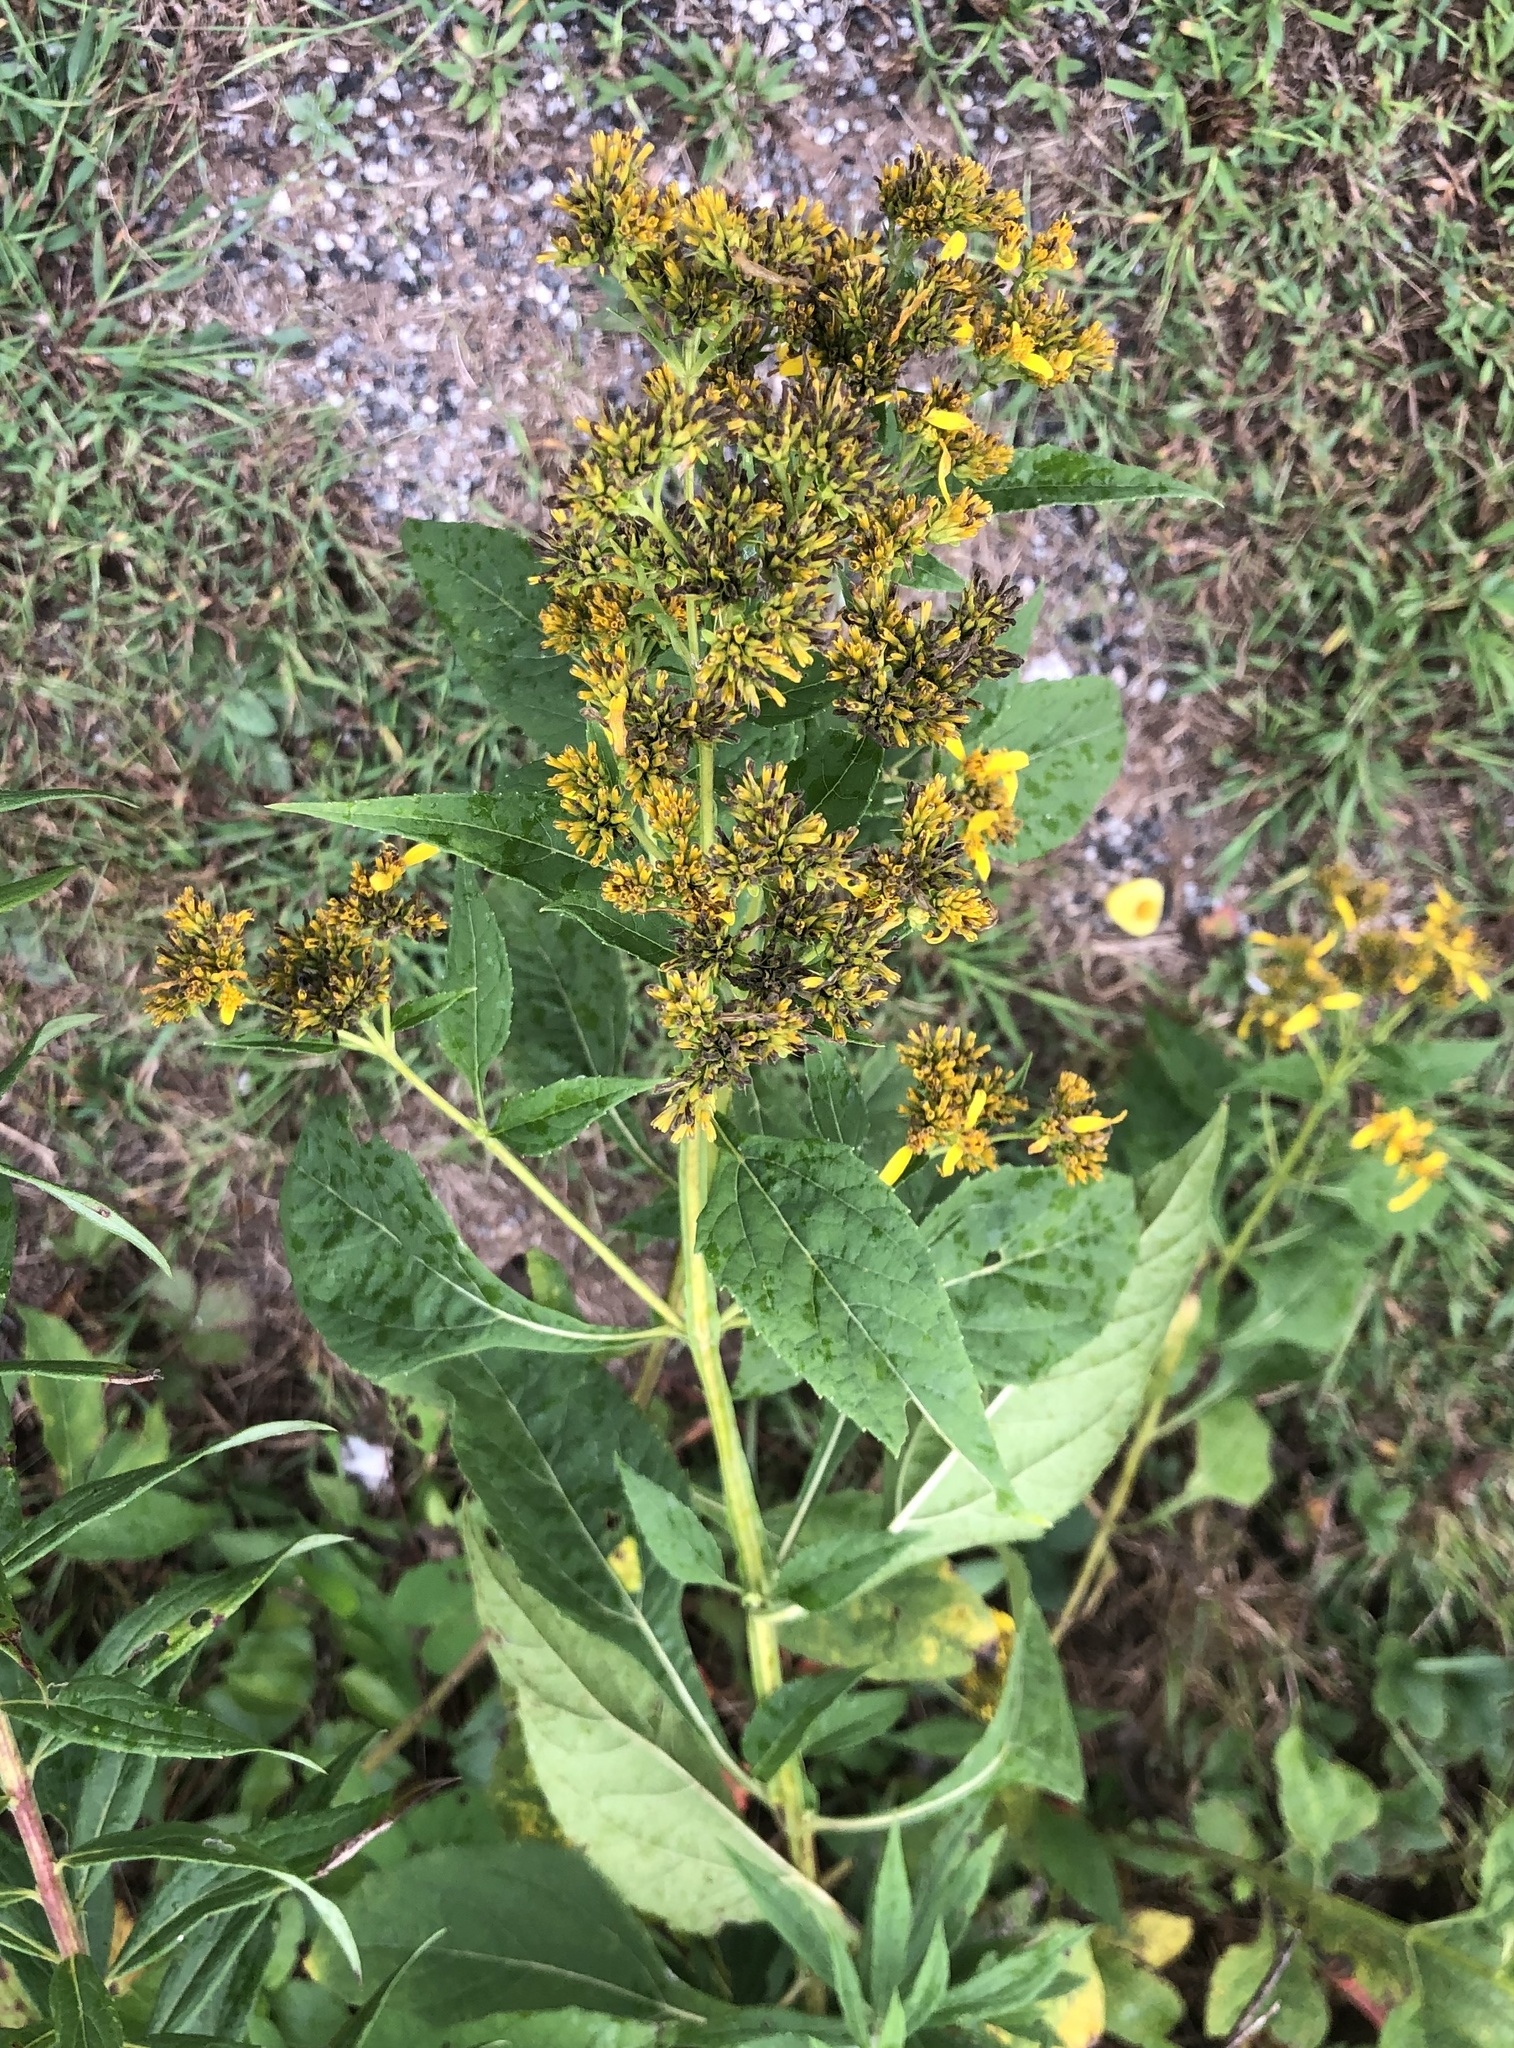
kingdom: Plantae
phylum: Tracheophyta
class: Magnoliopsida
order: Asterales
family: Asteraceae
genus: Verbesina
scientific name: Verbesina occidentalis
